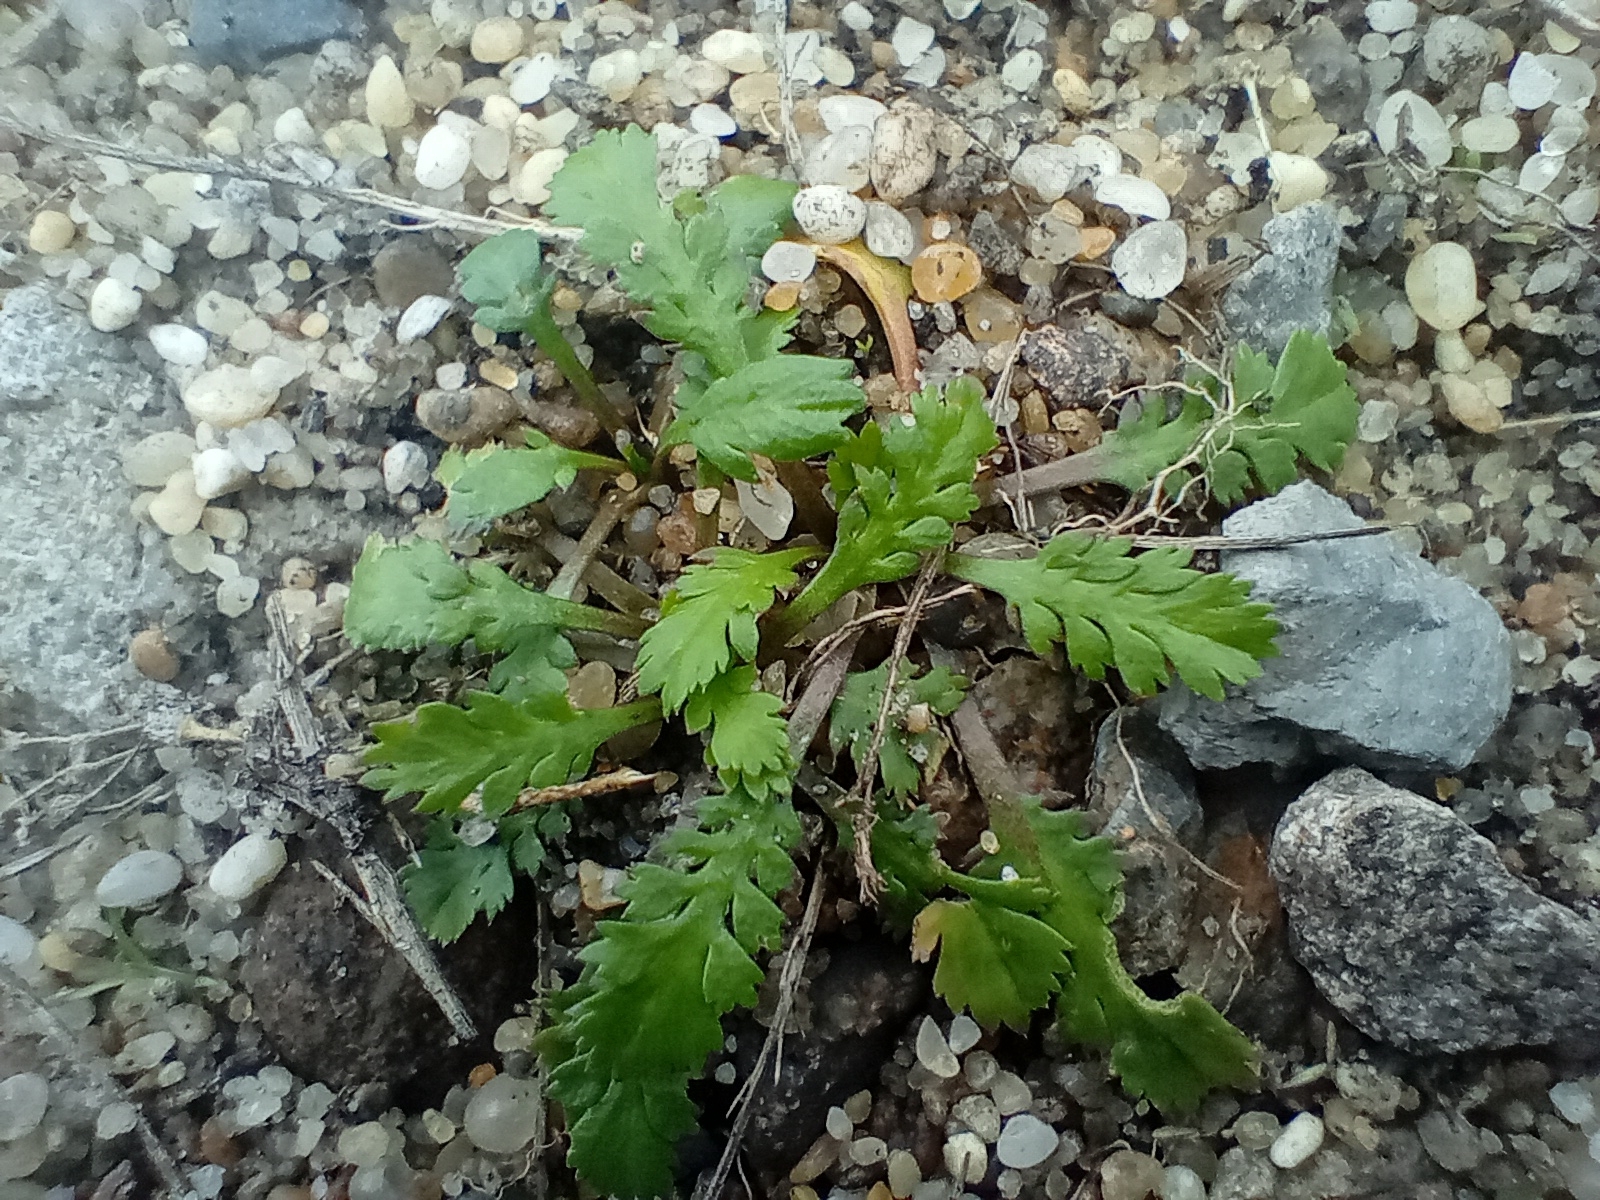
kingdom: Plantae
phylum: Tracheophyta
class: Magnoliopsida
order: Brassicales
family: Brassicaceae
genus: Lepidium
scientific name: Lepidium tenuicaule
